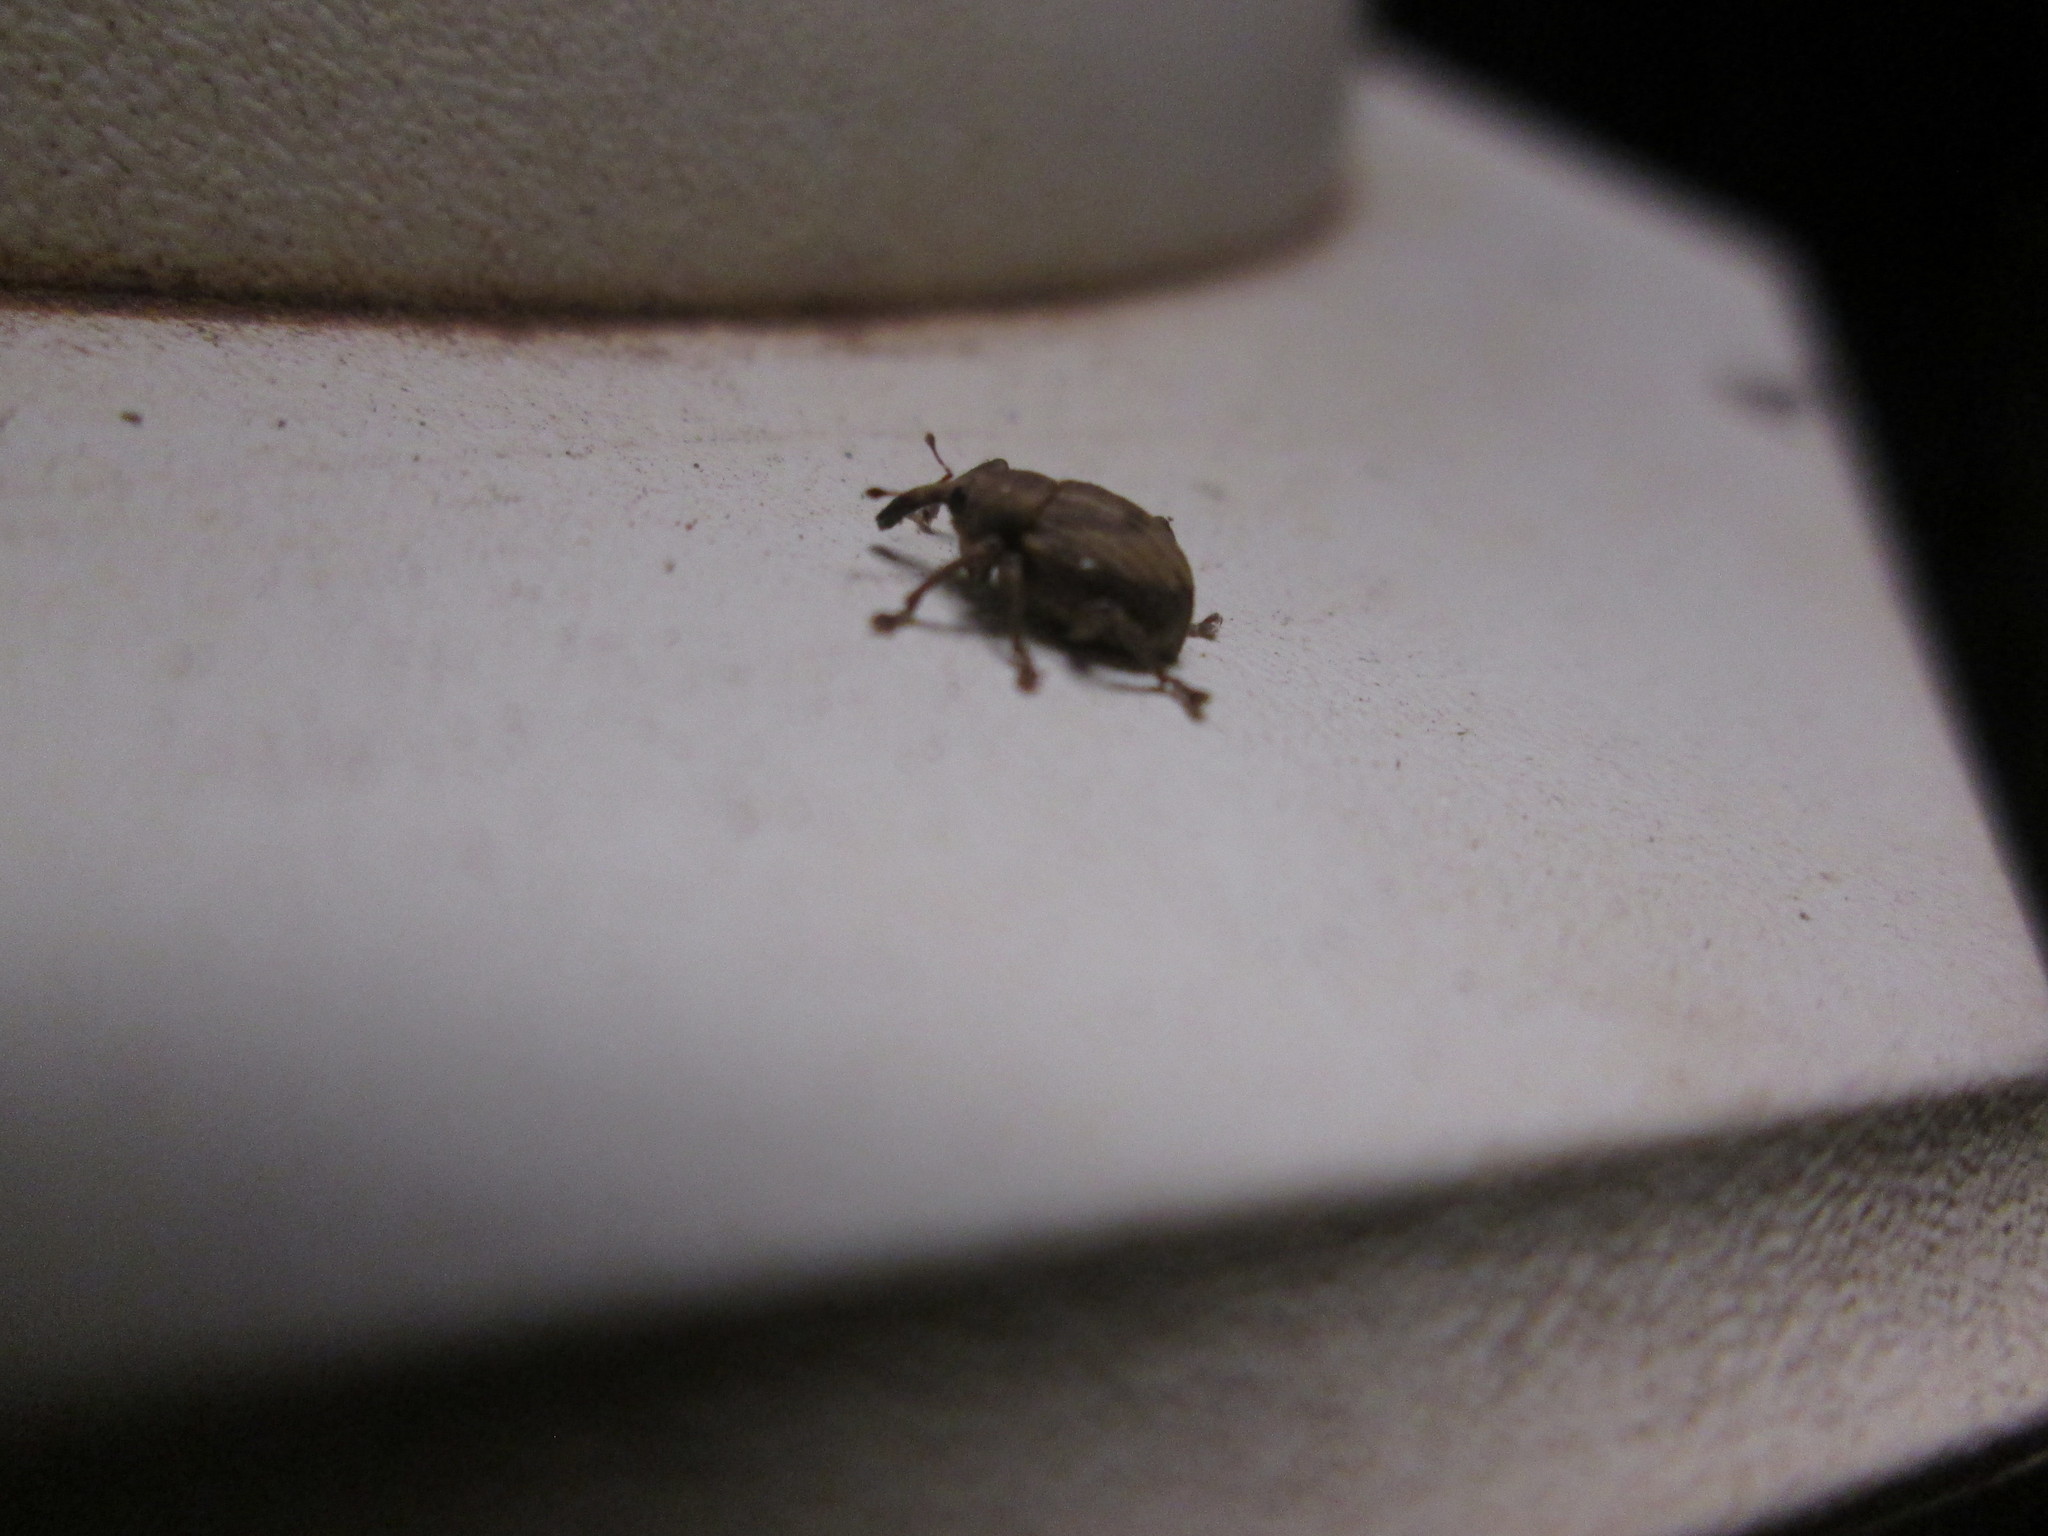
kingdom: Animalia
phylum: Arthropoda
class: Insecta
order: Coleoptera
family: Brachyceridae
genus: Neochetina
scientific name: Neochetina bruchi
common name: Beetle
